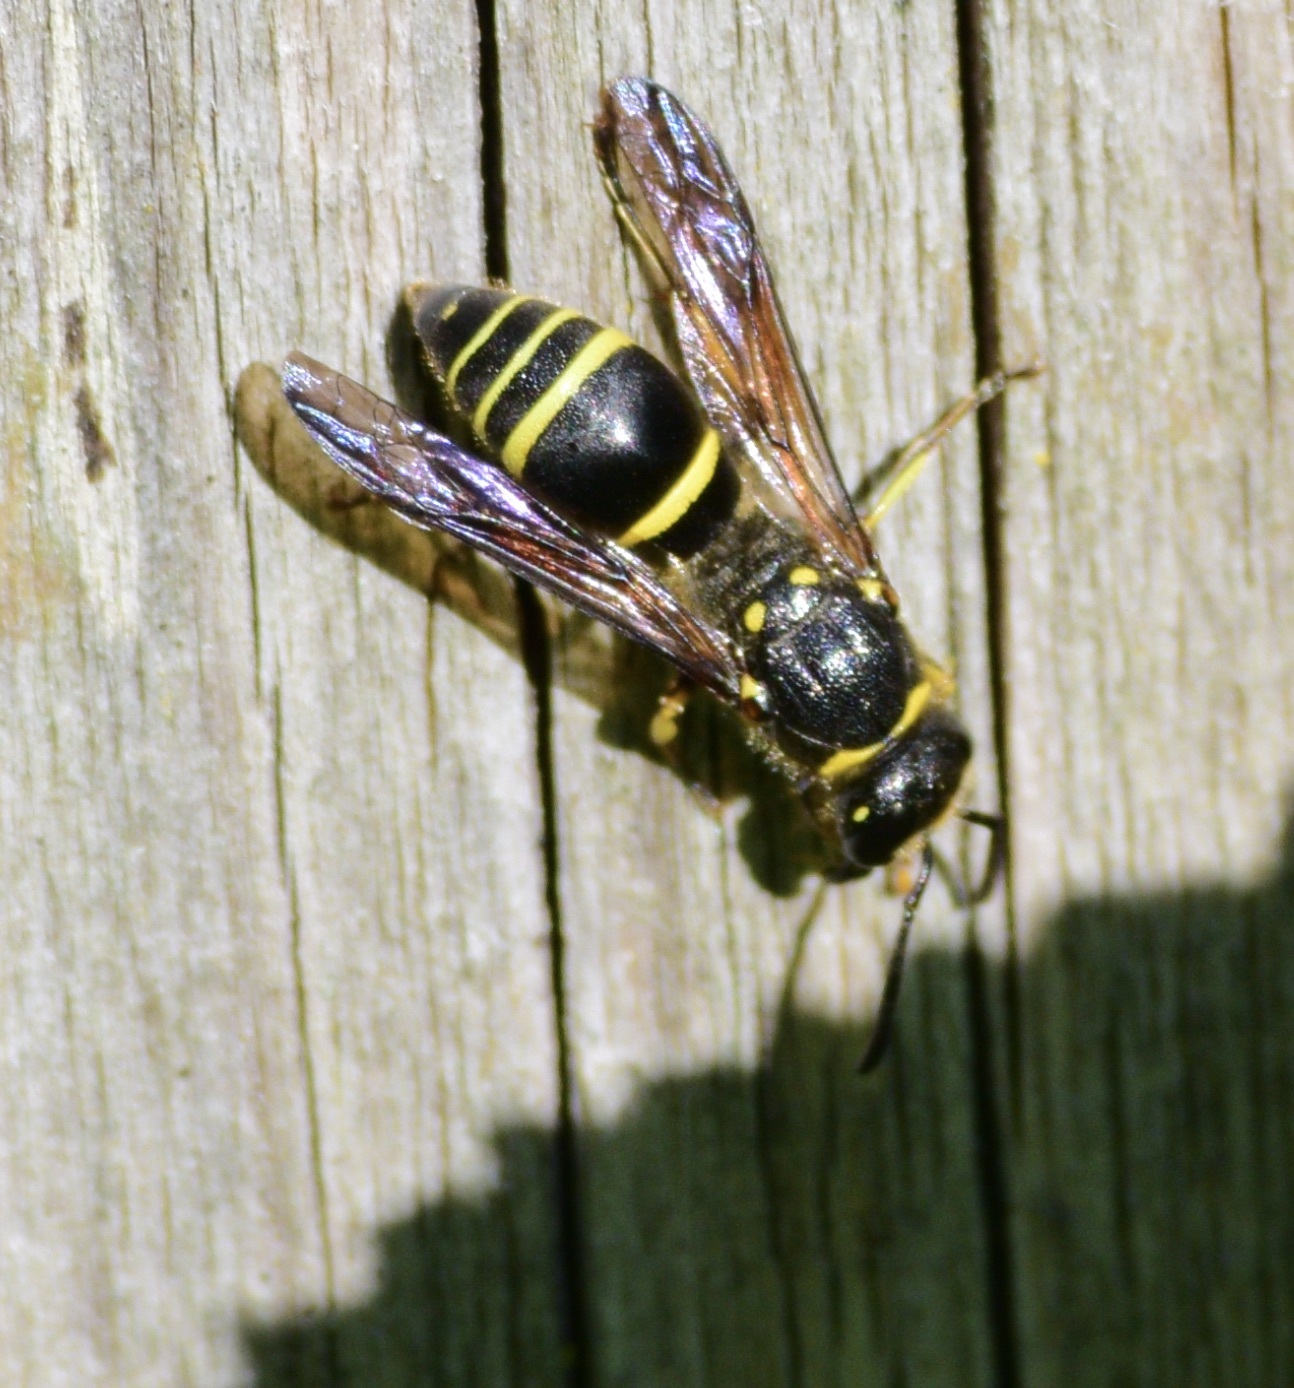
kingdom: Animalia
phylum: Arthropoda
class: Insecta
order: Hymenoptera
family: Vespidae
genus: Ancistrocerus
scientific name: Ancistrocerus
